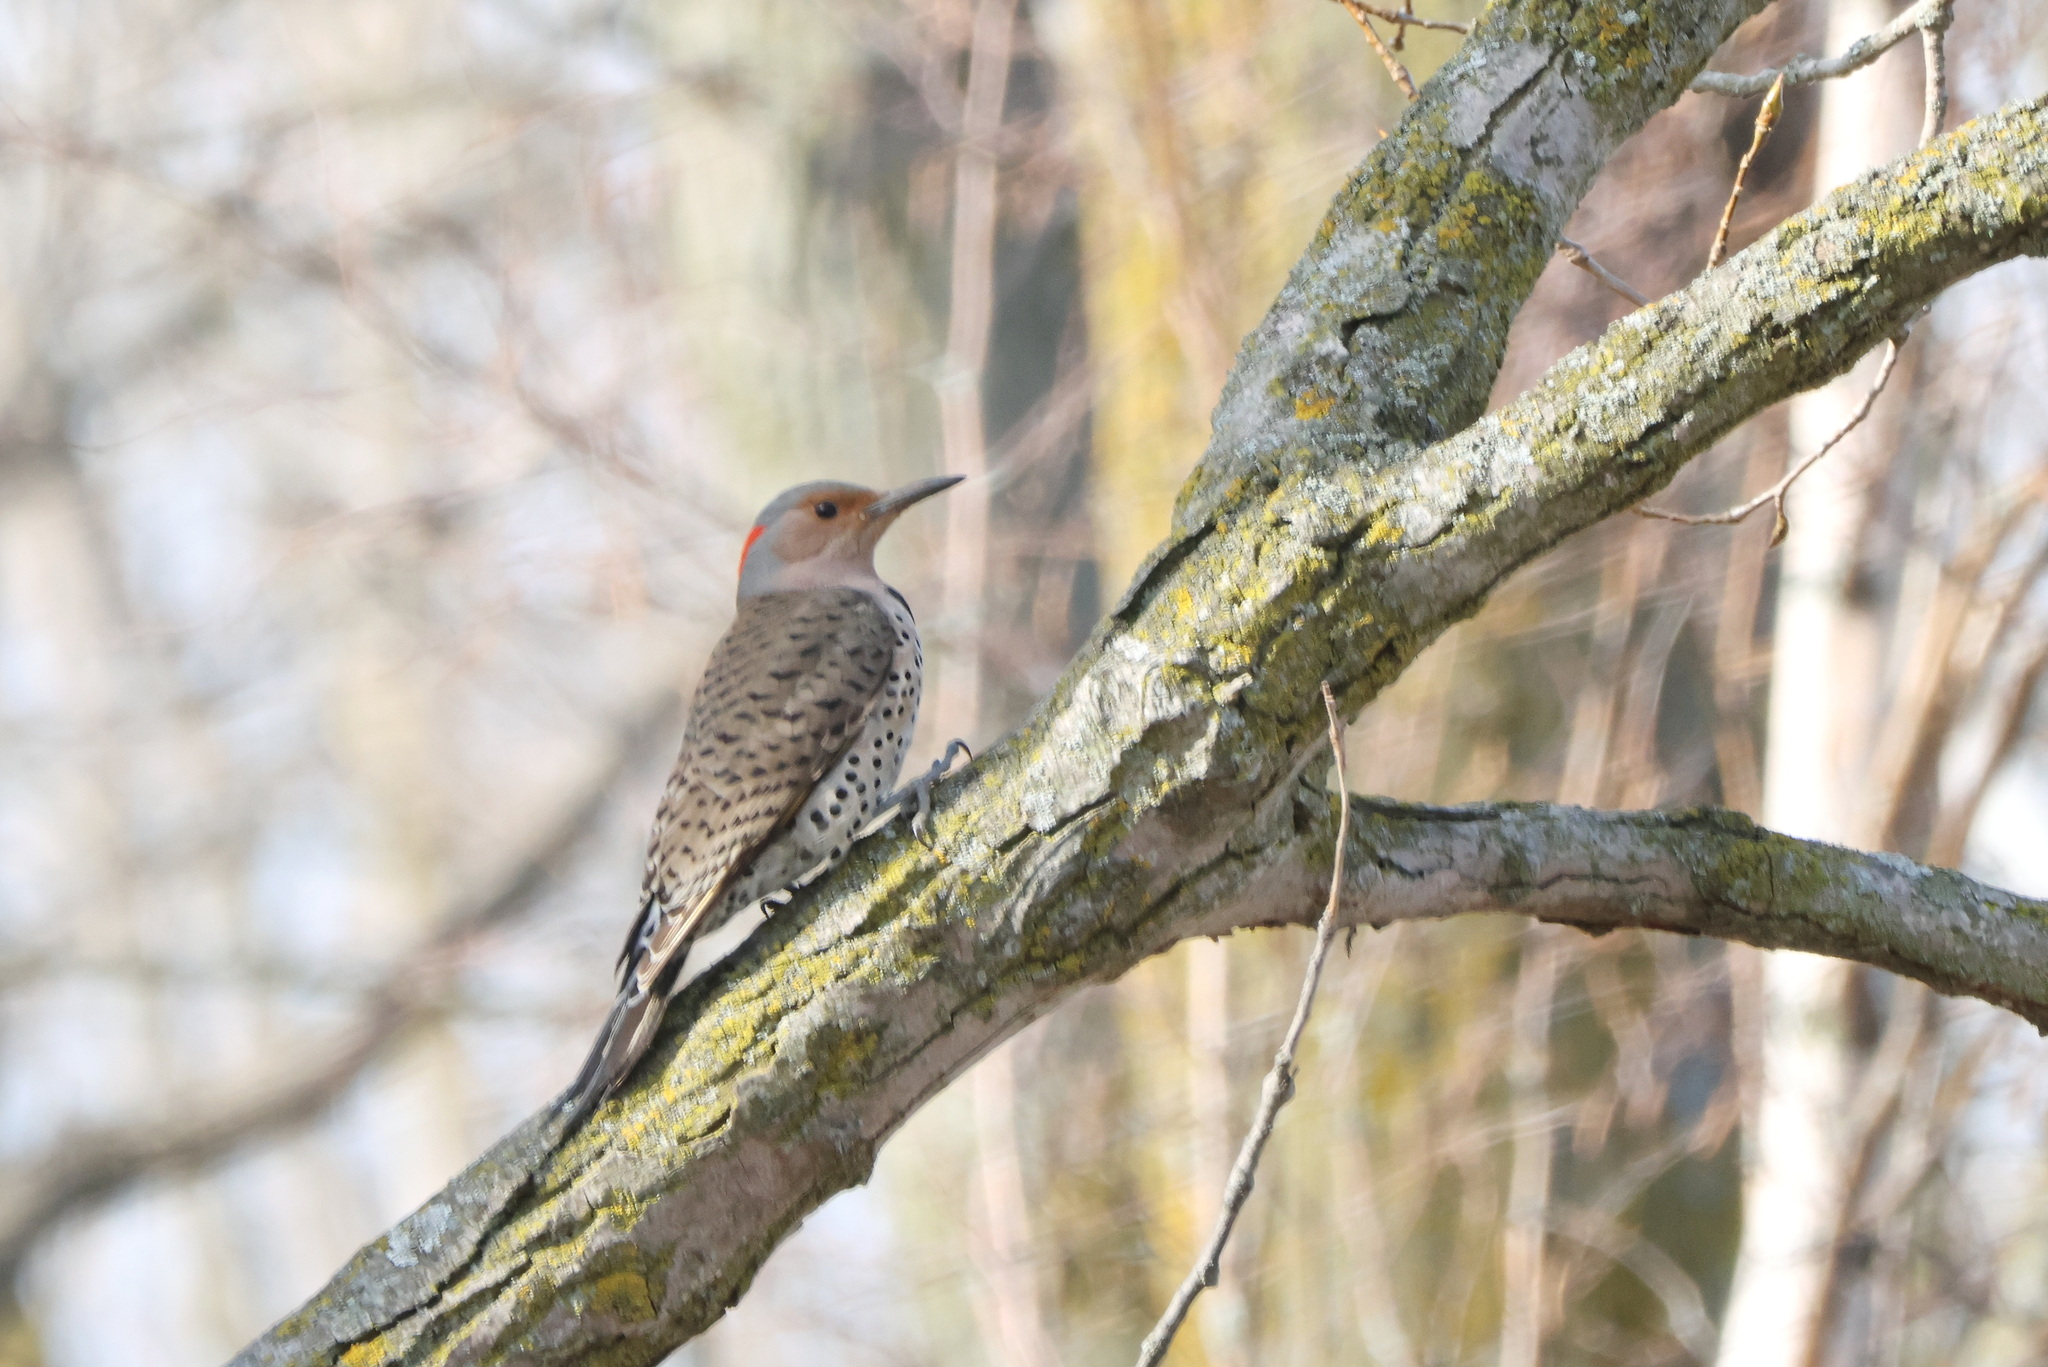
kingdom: Animalia
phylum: Chordata
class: Aves
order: Piciformes
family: Picidae
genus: Colaptes
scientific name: Colaptes auratus
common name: Northern flicker
